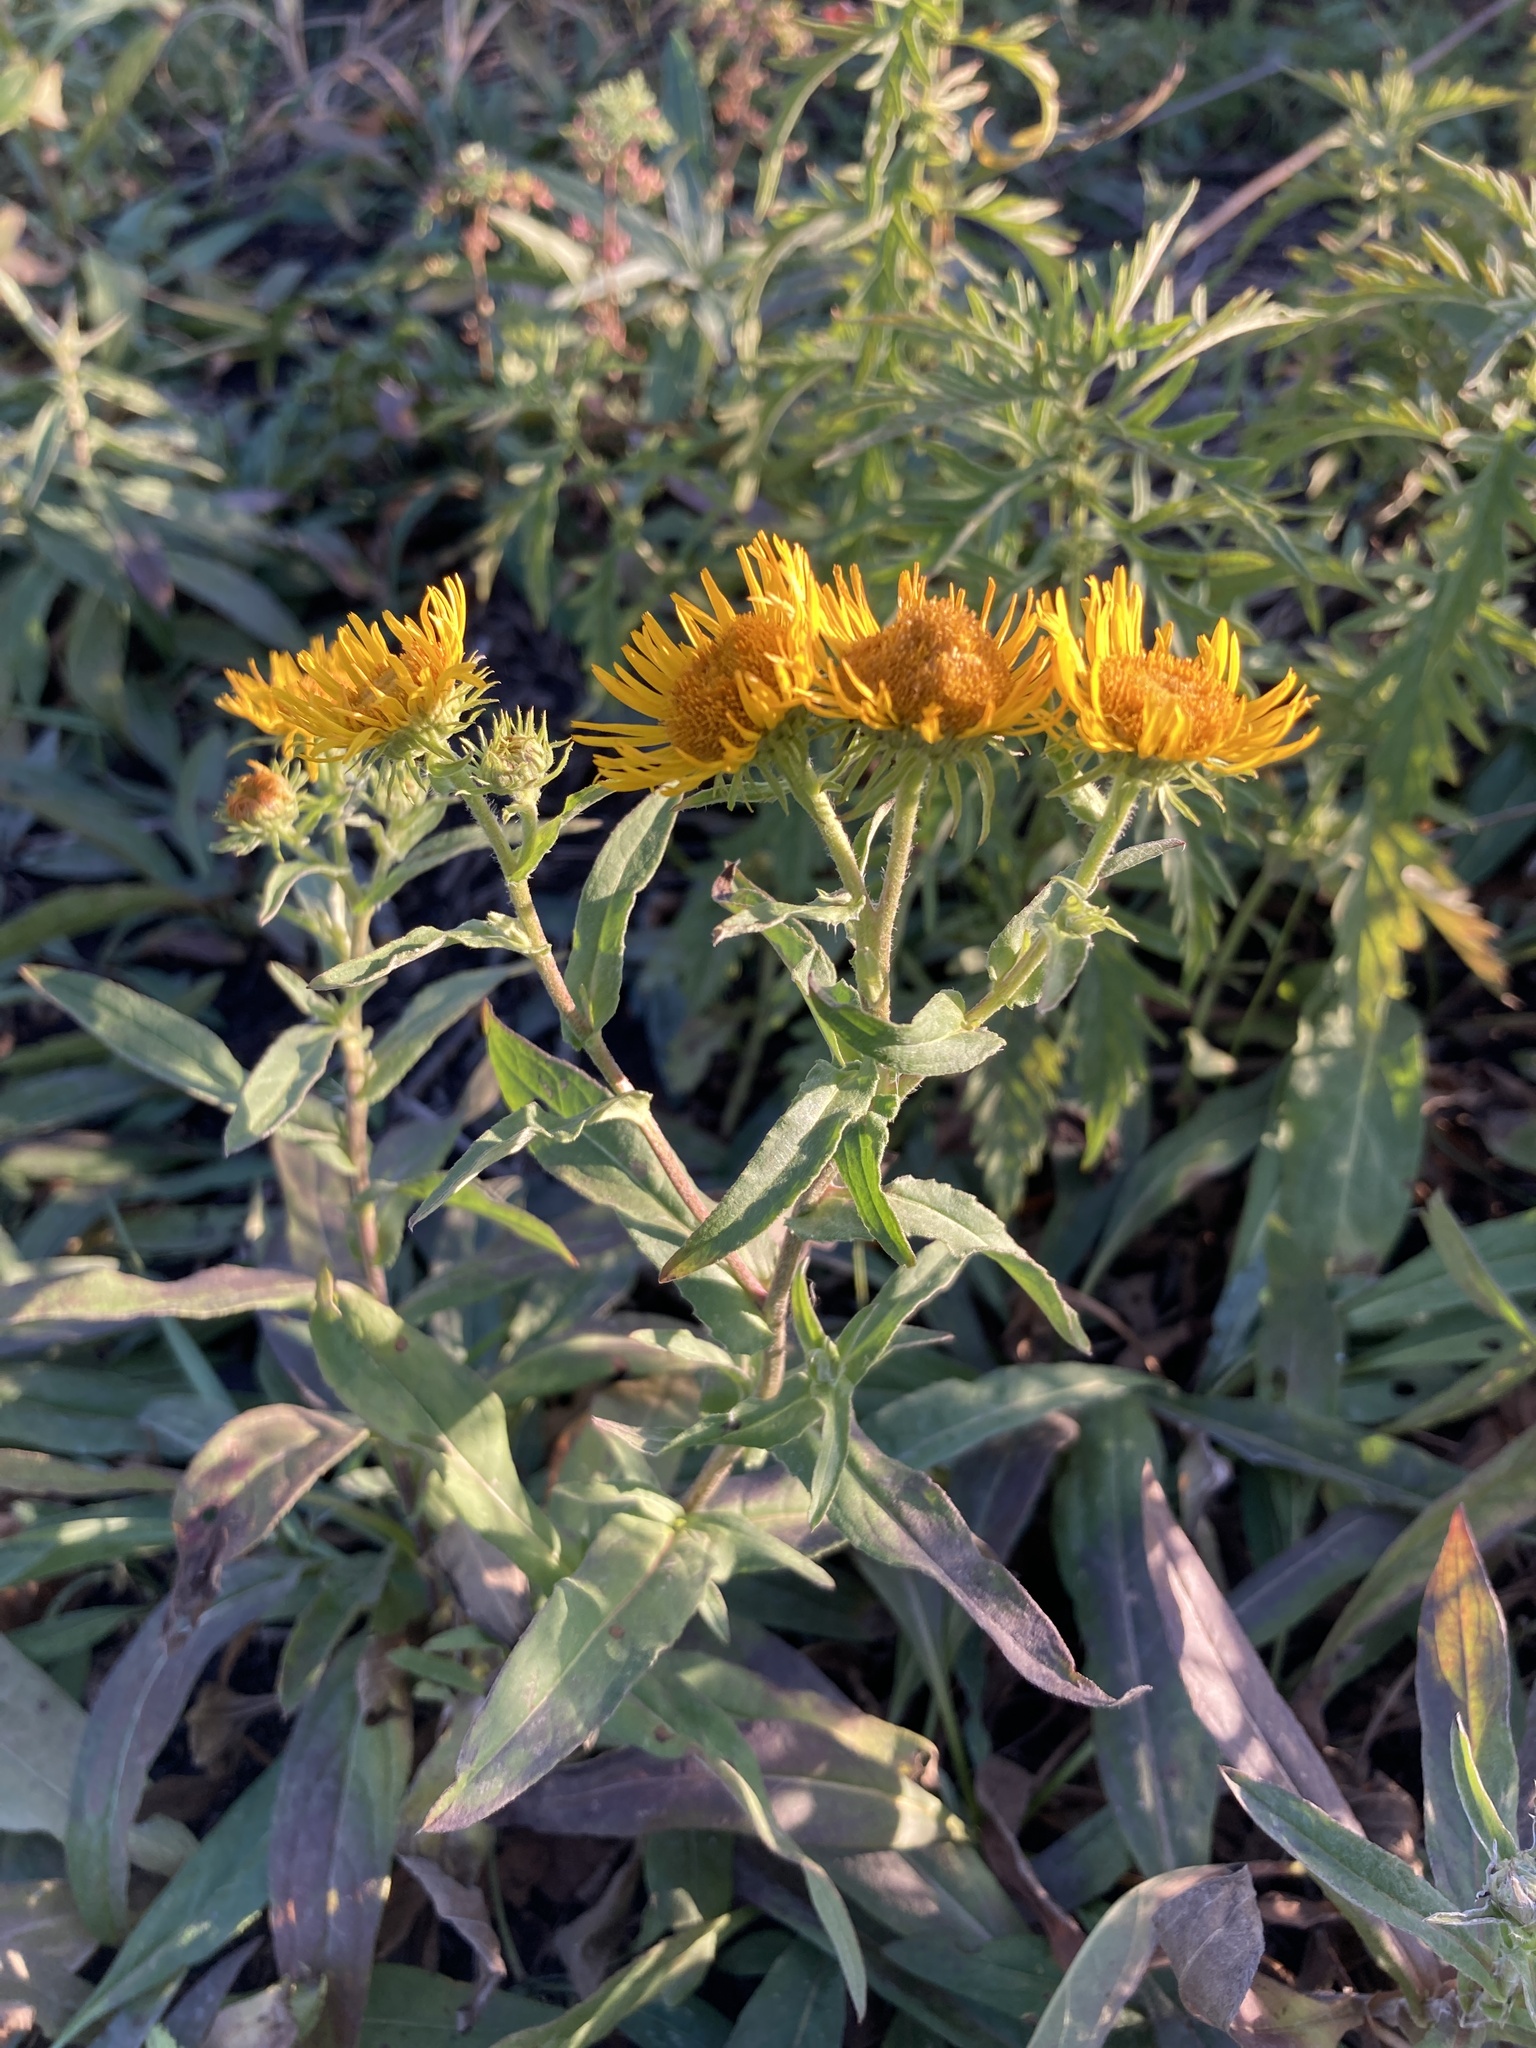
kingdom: Plantae
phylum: Tracheophyta
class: Magnoliopsida
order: Asterales
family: Asteraceae
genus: Pentanema
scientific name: Pentanema britannicum
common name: British elecampane
